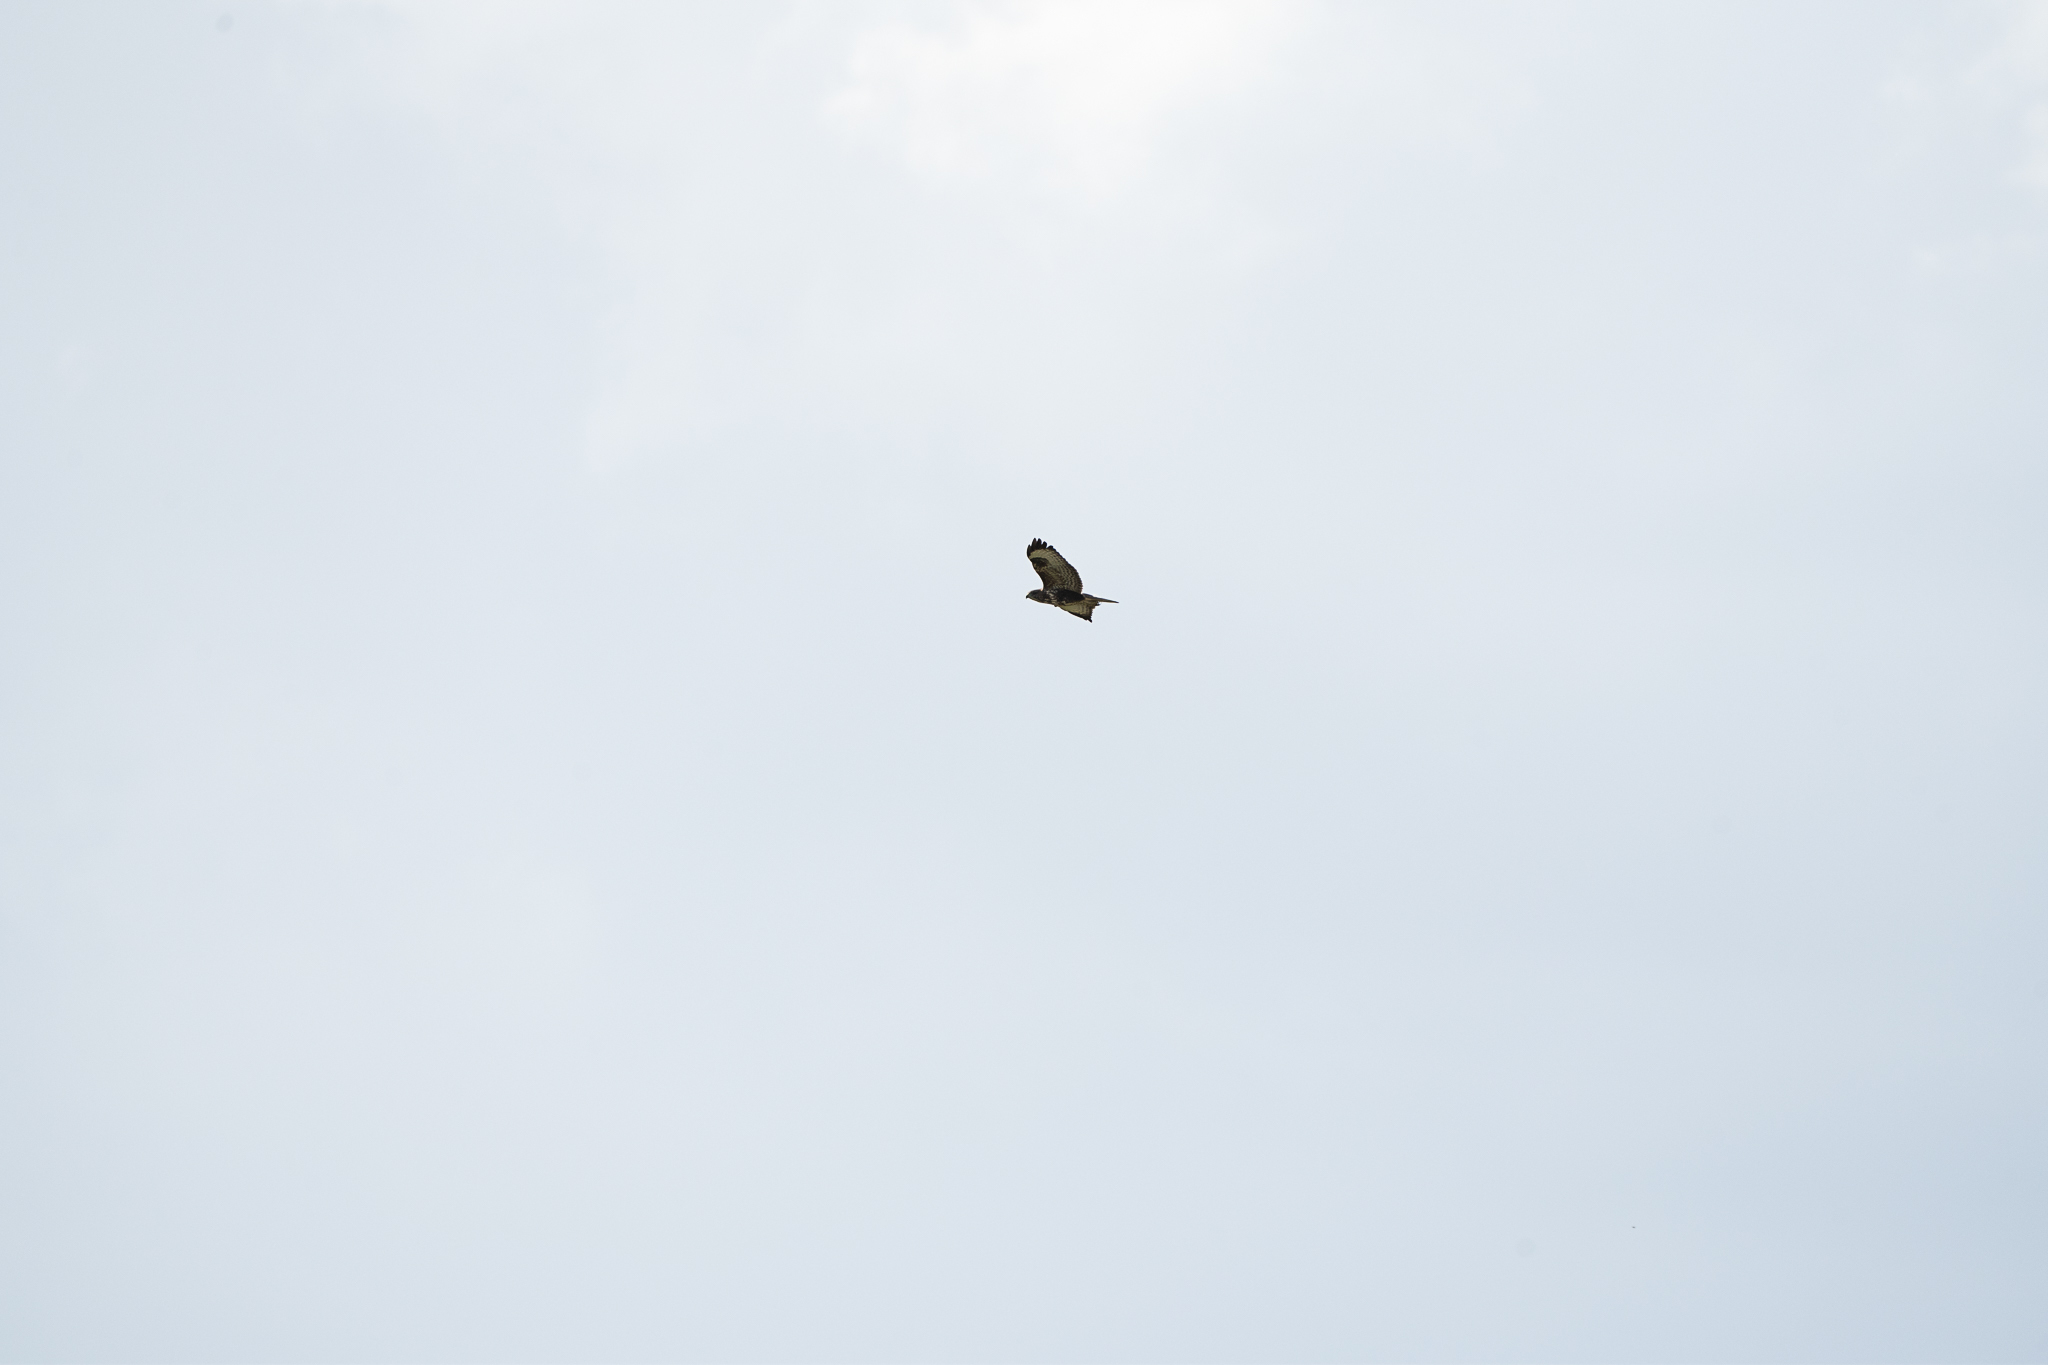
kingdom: Animalia
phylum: Chordata
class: Aves
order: Accipitriformes
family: Accipitridae
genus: Buteo
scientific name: Buteo buteo
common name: Common buzzard
